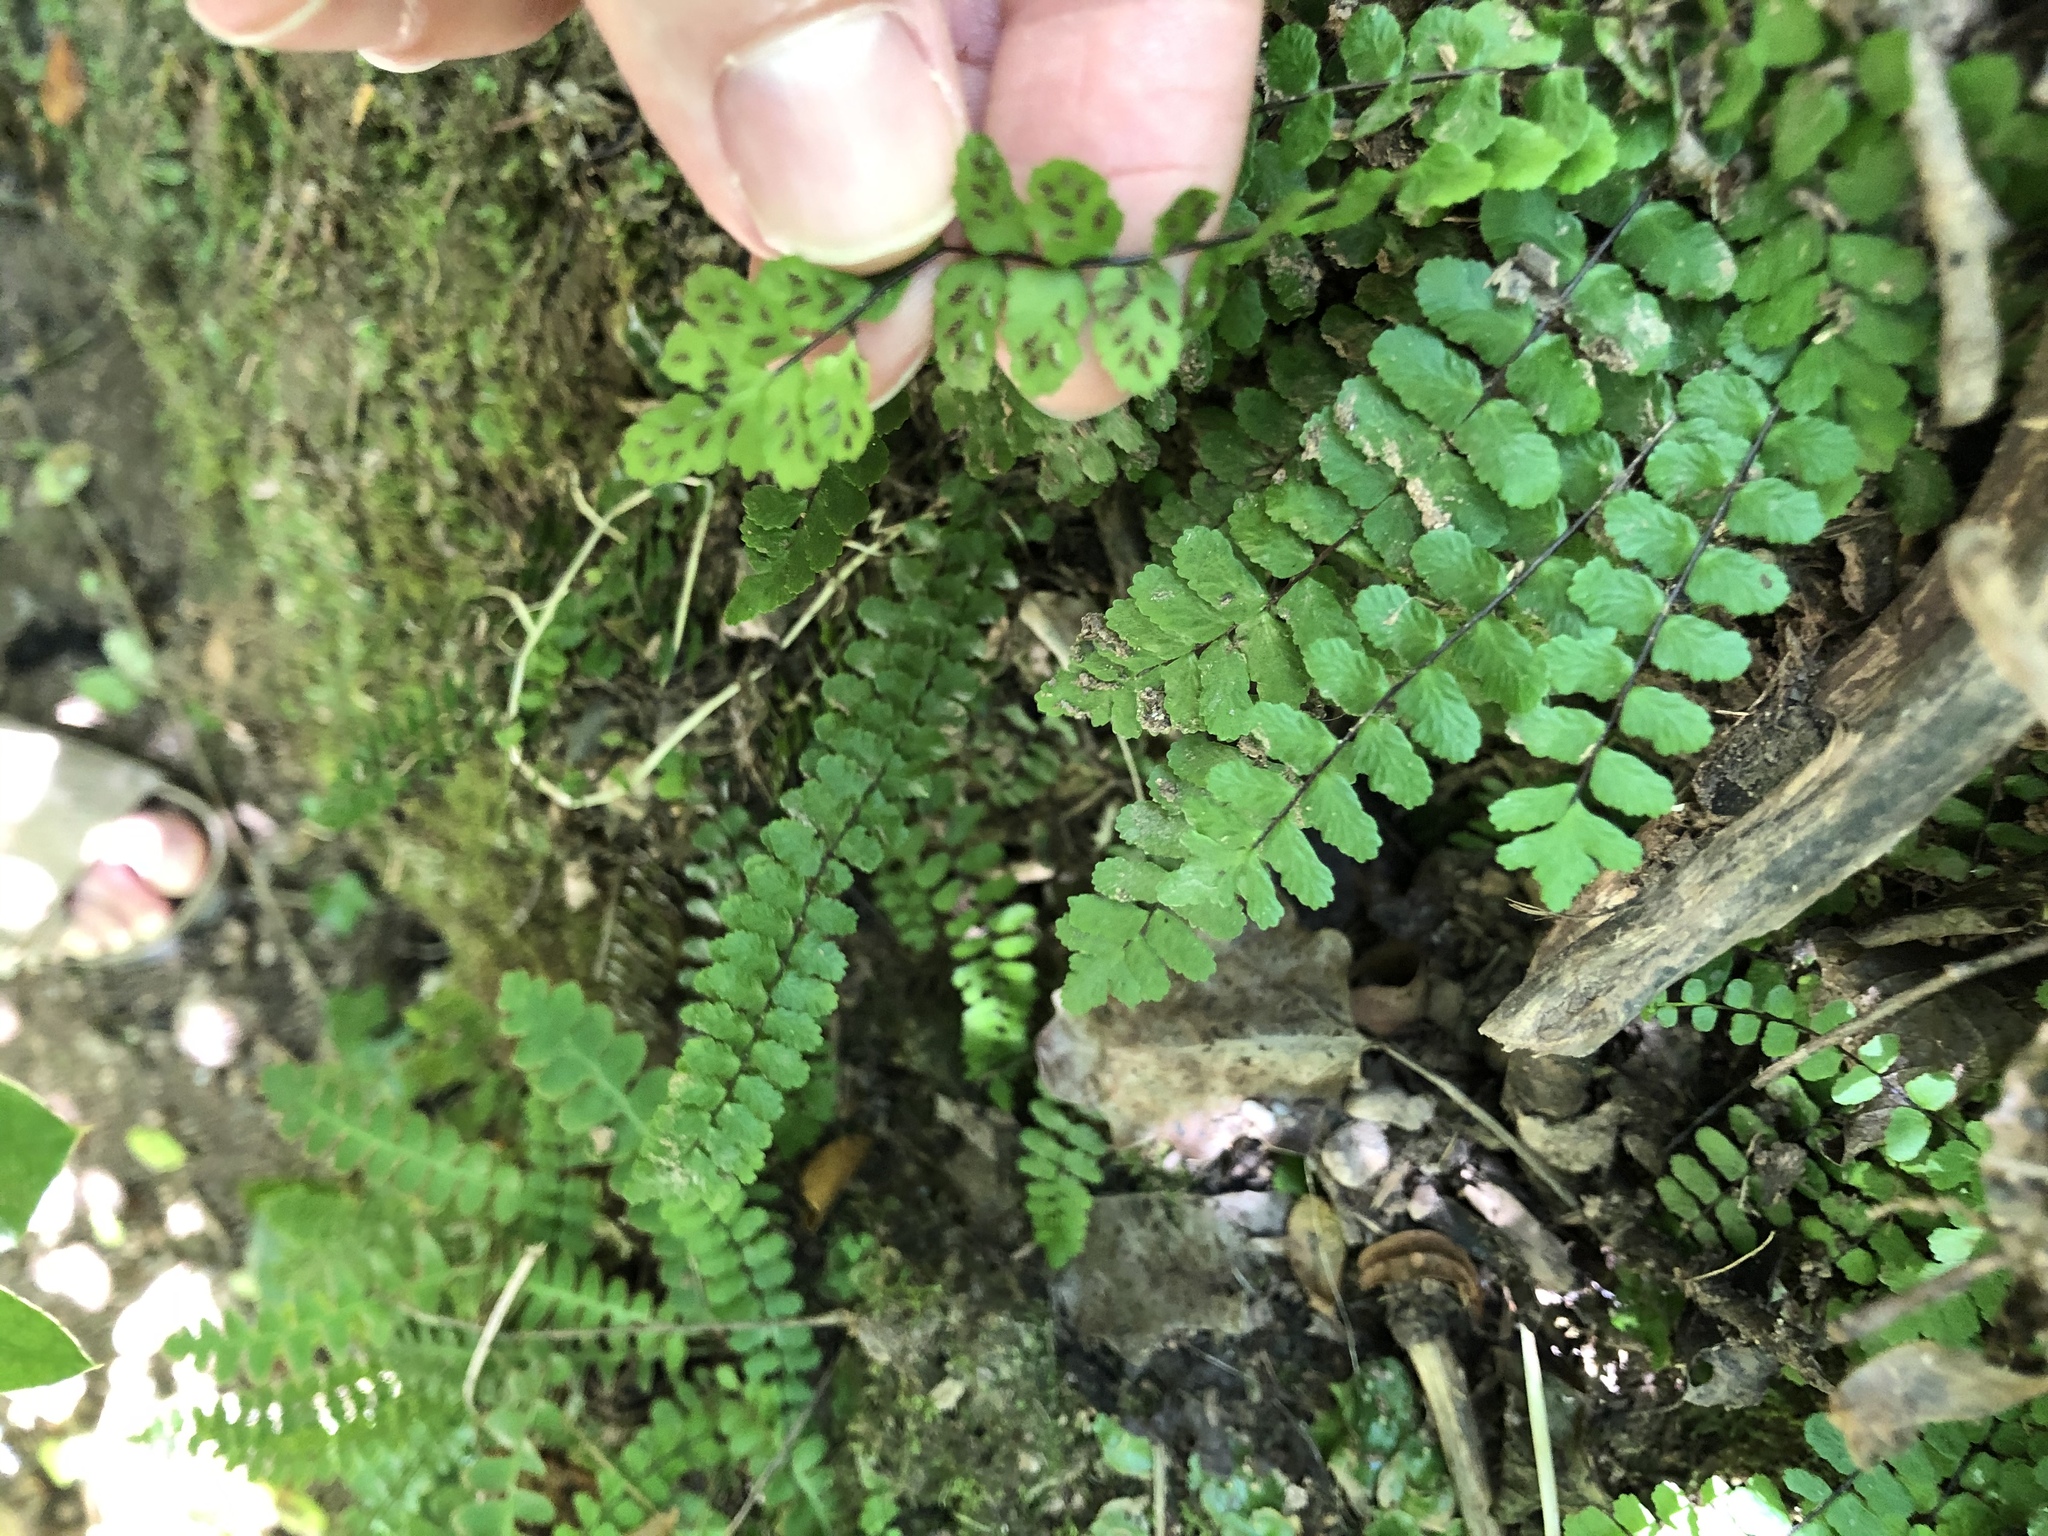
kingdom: Plantae
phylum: Tracheophyta
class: Polypodiopsida
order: Polypodiales
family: Aspleniaceae
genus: Asplenium
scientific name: Asplenium trichomanes
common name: Maidenhair spleenwort
